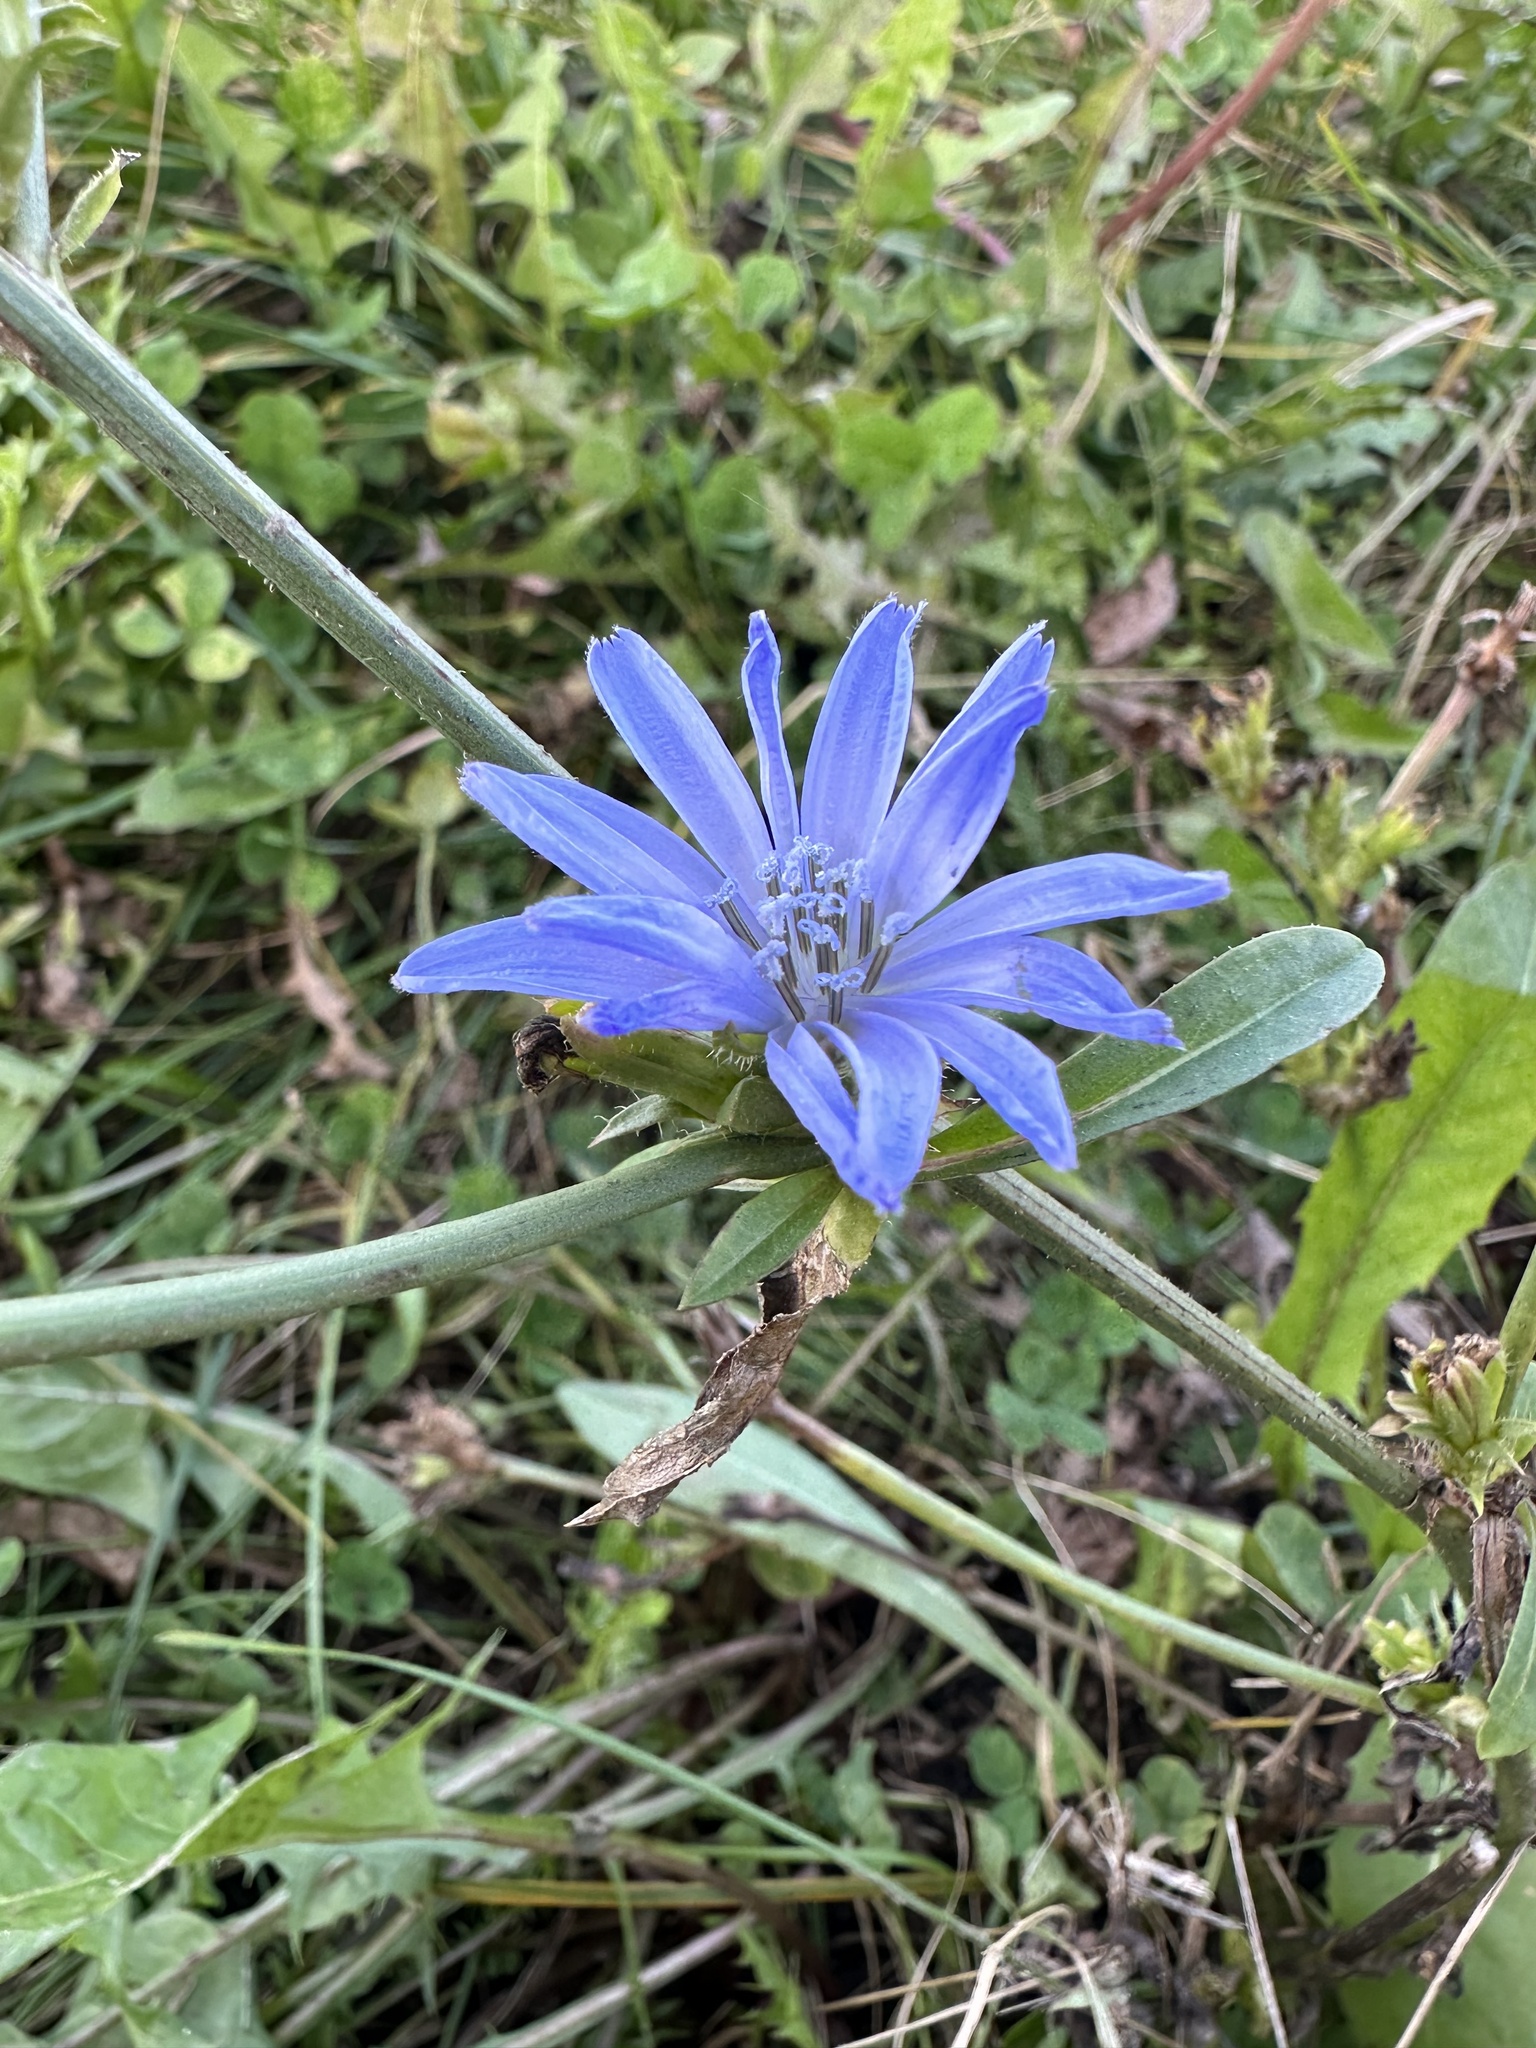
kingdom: Plantae
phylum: Tracheophyta
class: Magnoliopsida
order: Asterales
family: Asteraceae
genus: Cichorium
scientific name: Cichorium intybus
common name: Chicory
